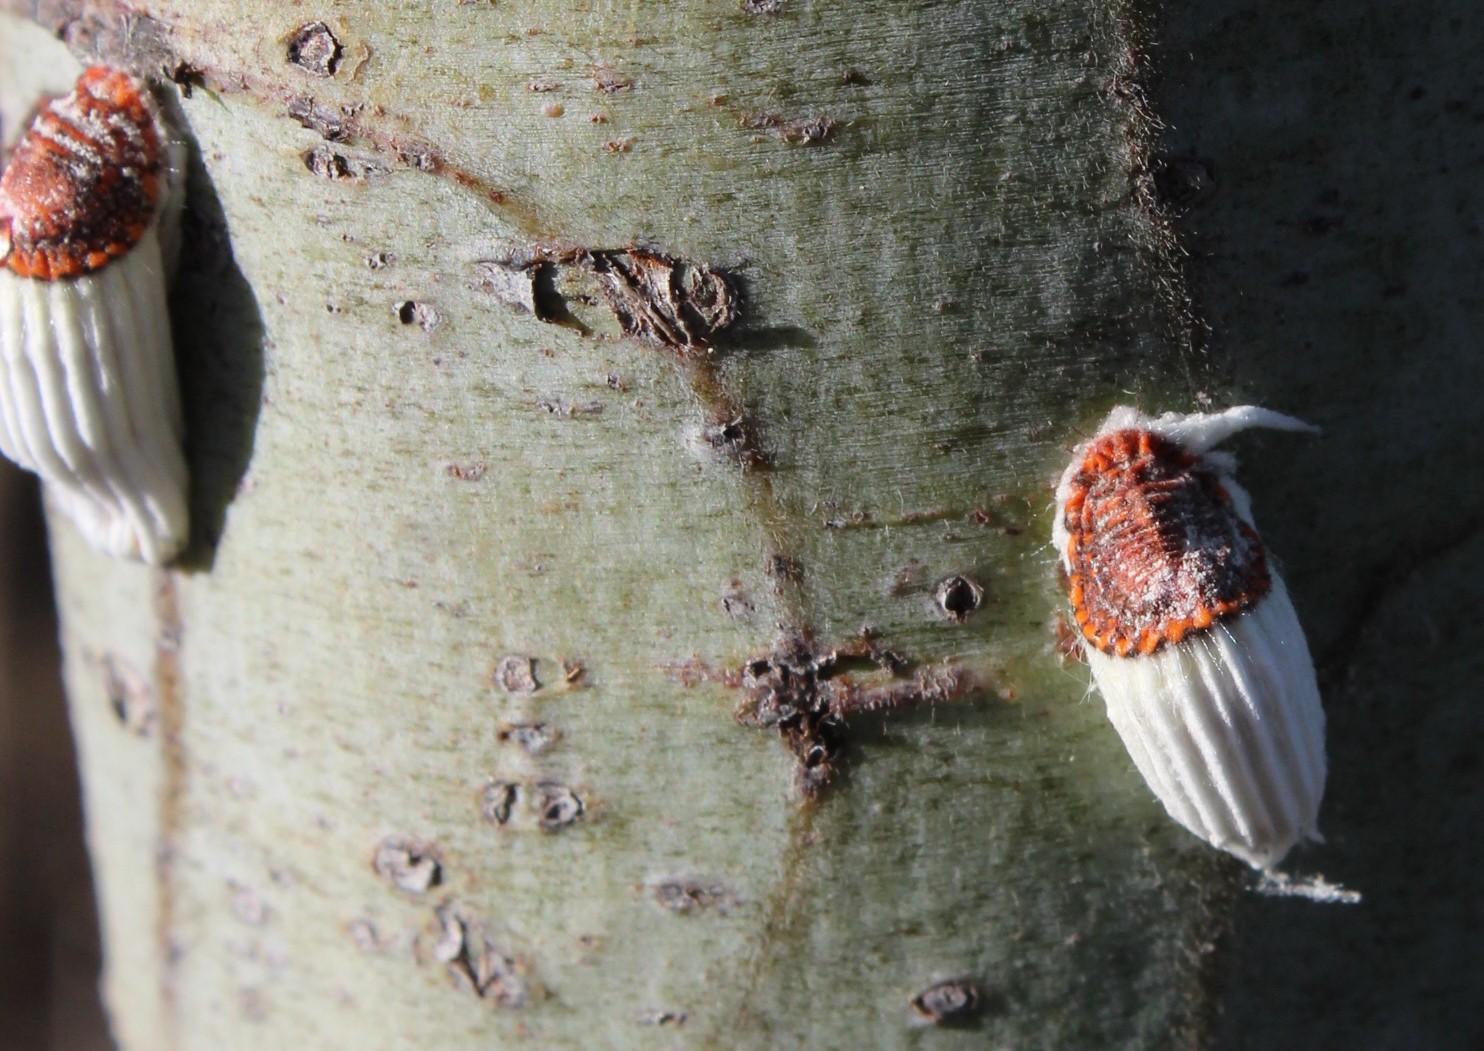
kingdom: Animalia
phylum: Arthropoda
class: Insecta
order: Hemiptera
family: Margarodidae
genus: Icerya
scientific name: Icerya purchasi
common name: Cottony cushion scale
